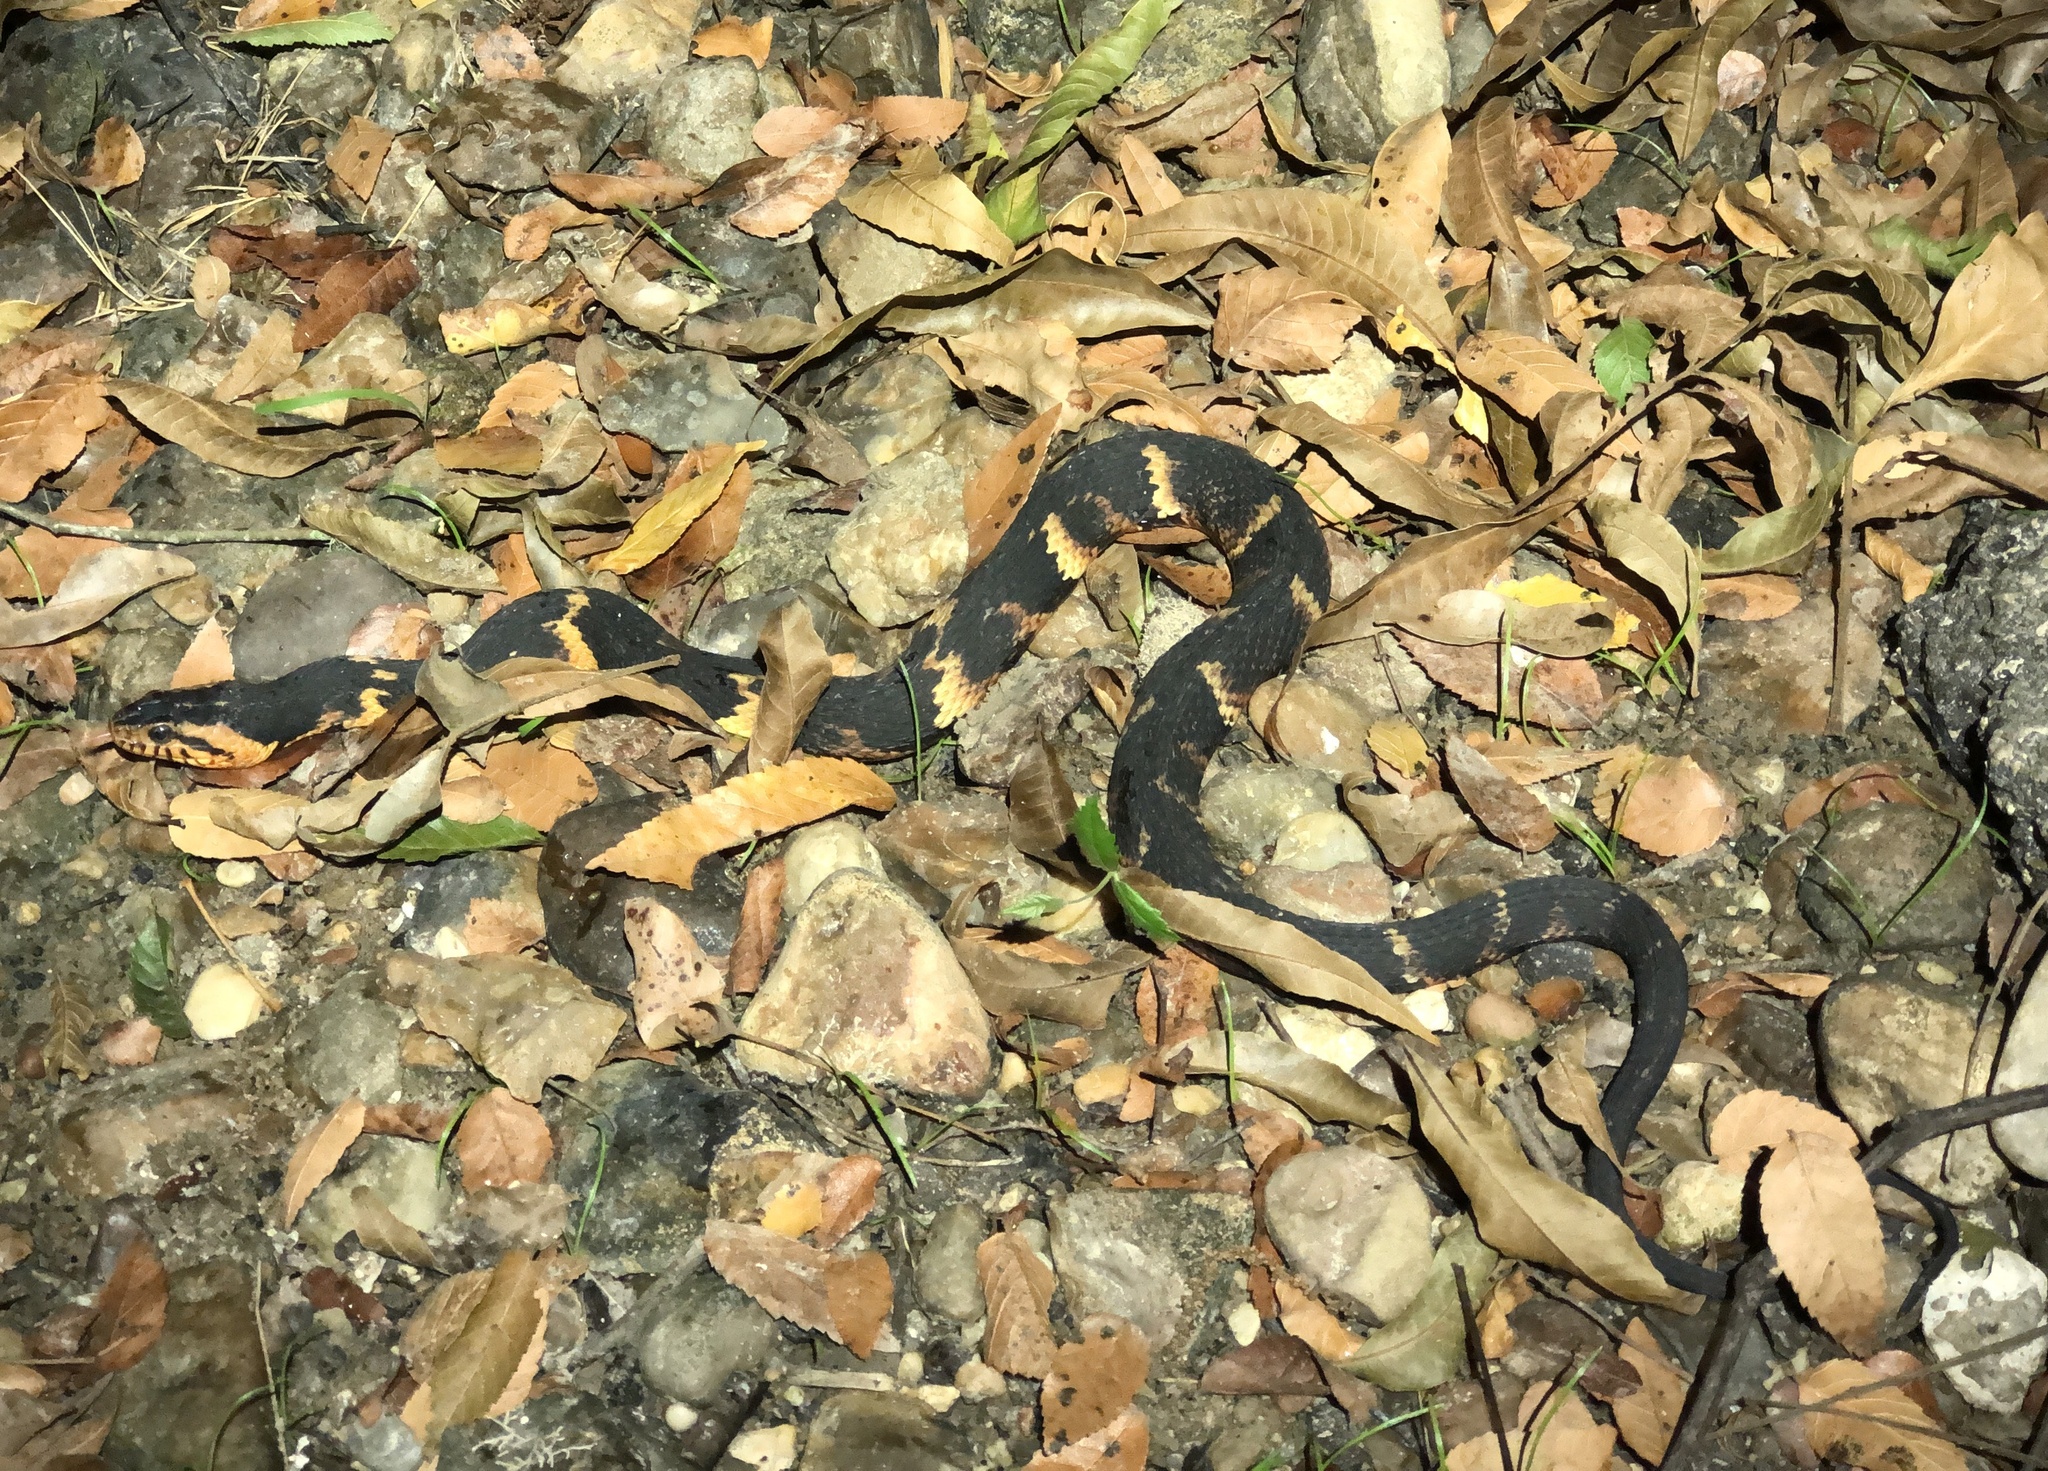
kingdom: Animalia
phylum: Chordata
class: Squamata
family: Colubridae
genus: Nerodia
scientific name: Nerodia fasciata
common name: Southern water snake
